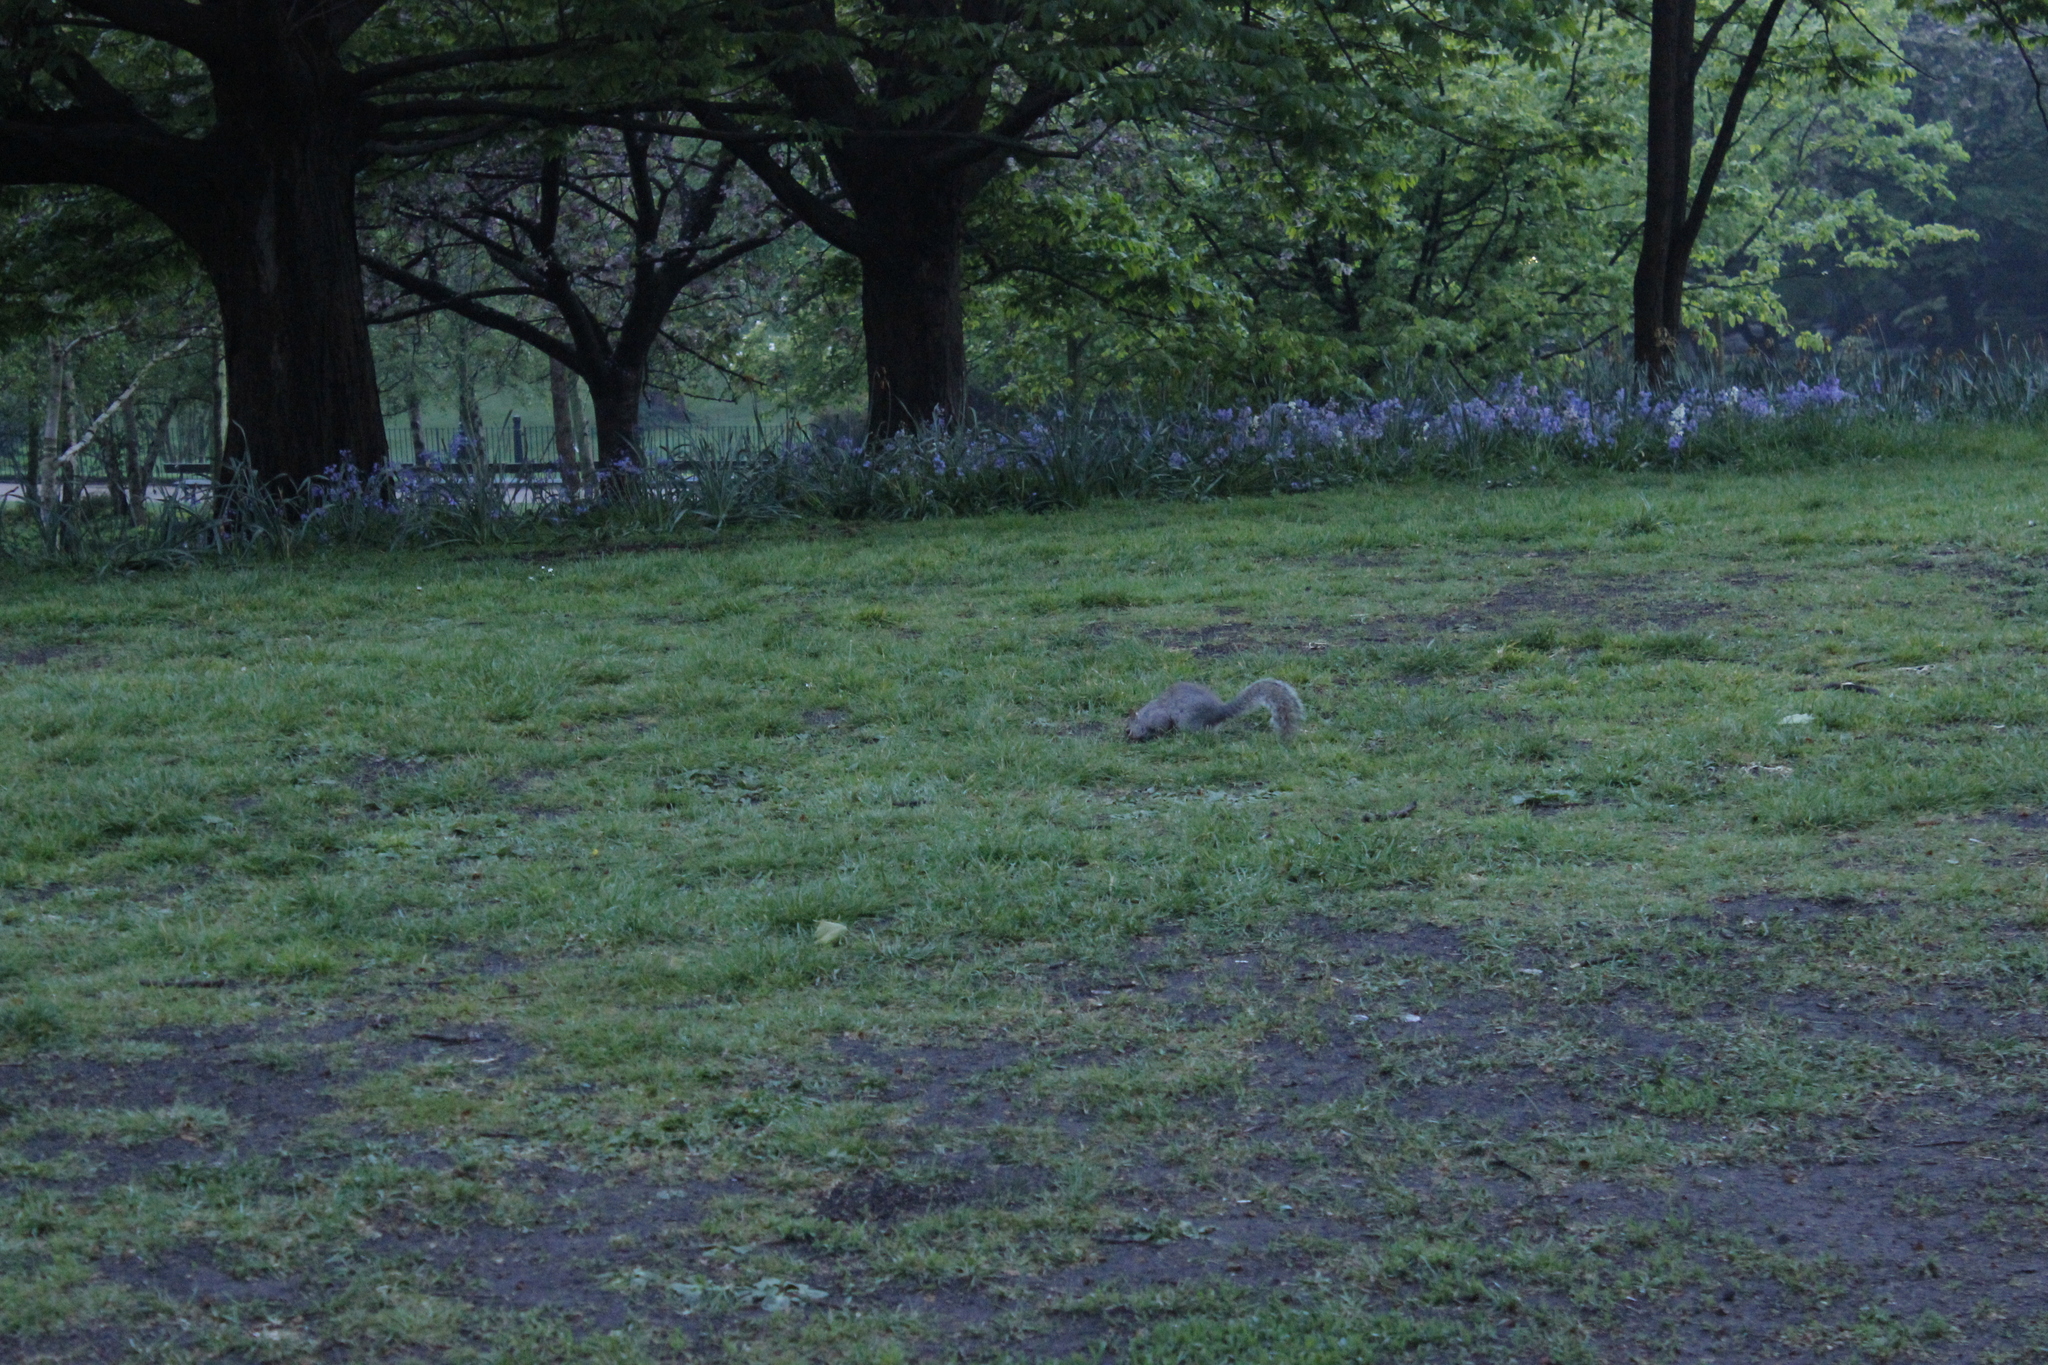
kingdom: Animalia
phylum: Chordata
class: Mammalia
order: Rodentia
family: Sciuridae
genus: Sciurus
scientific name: Sciurus carolinensis
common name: Eastern gray squirrel
